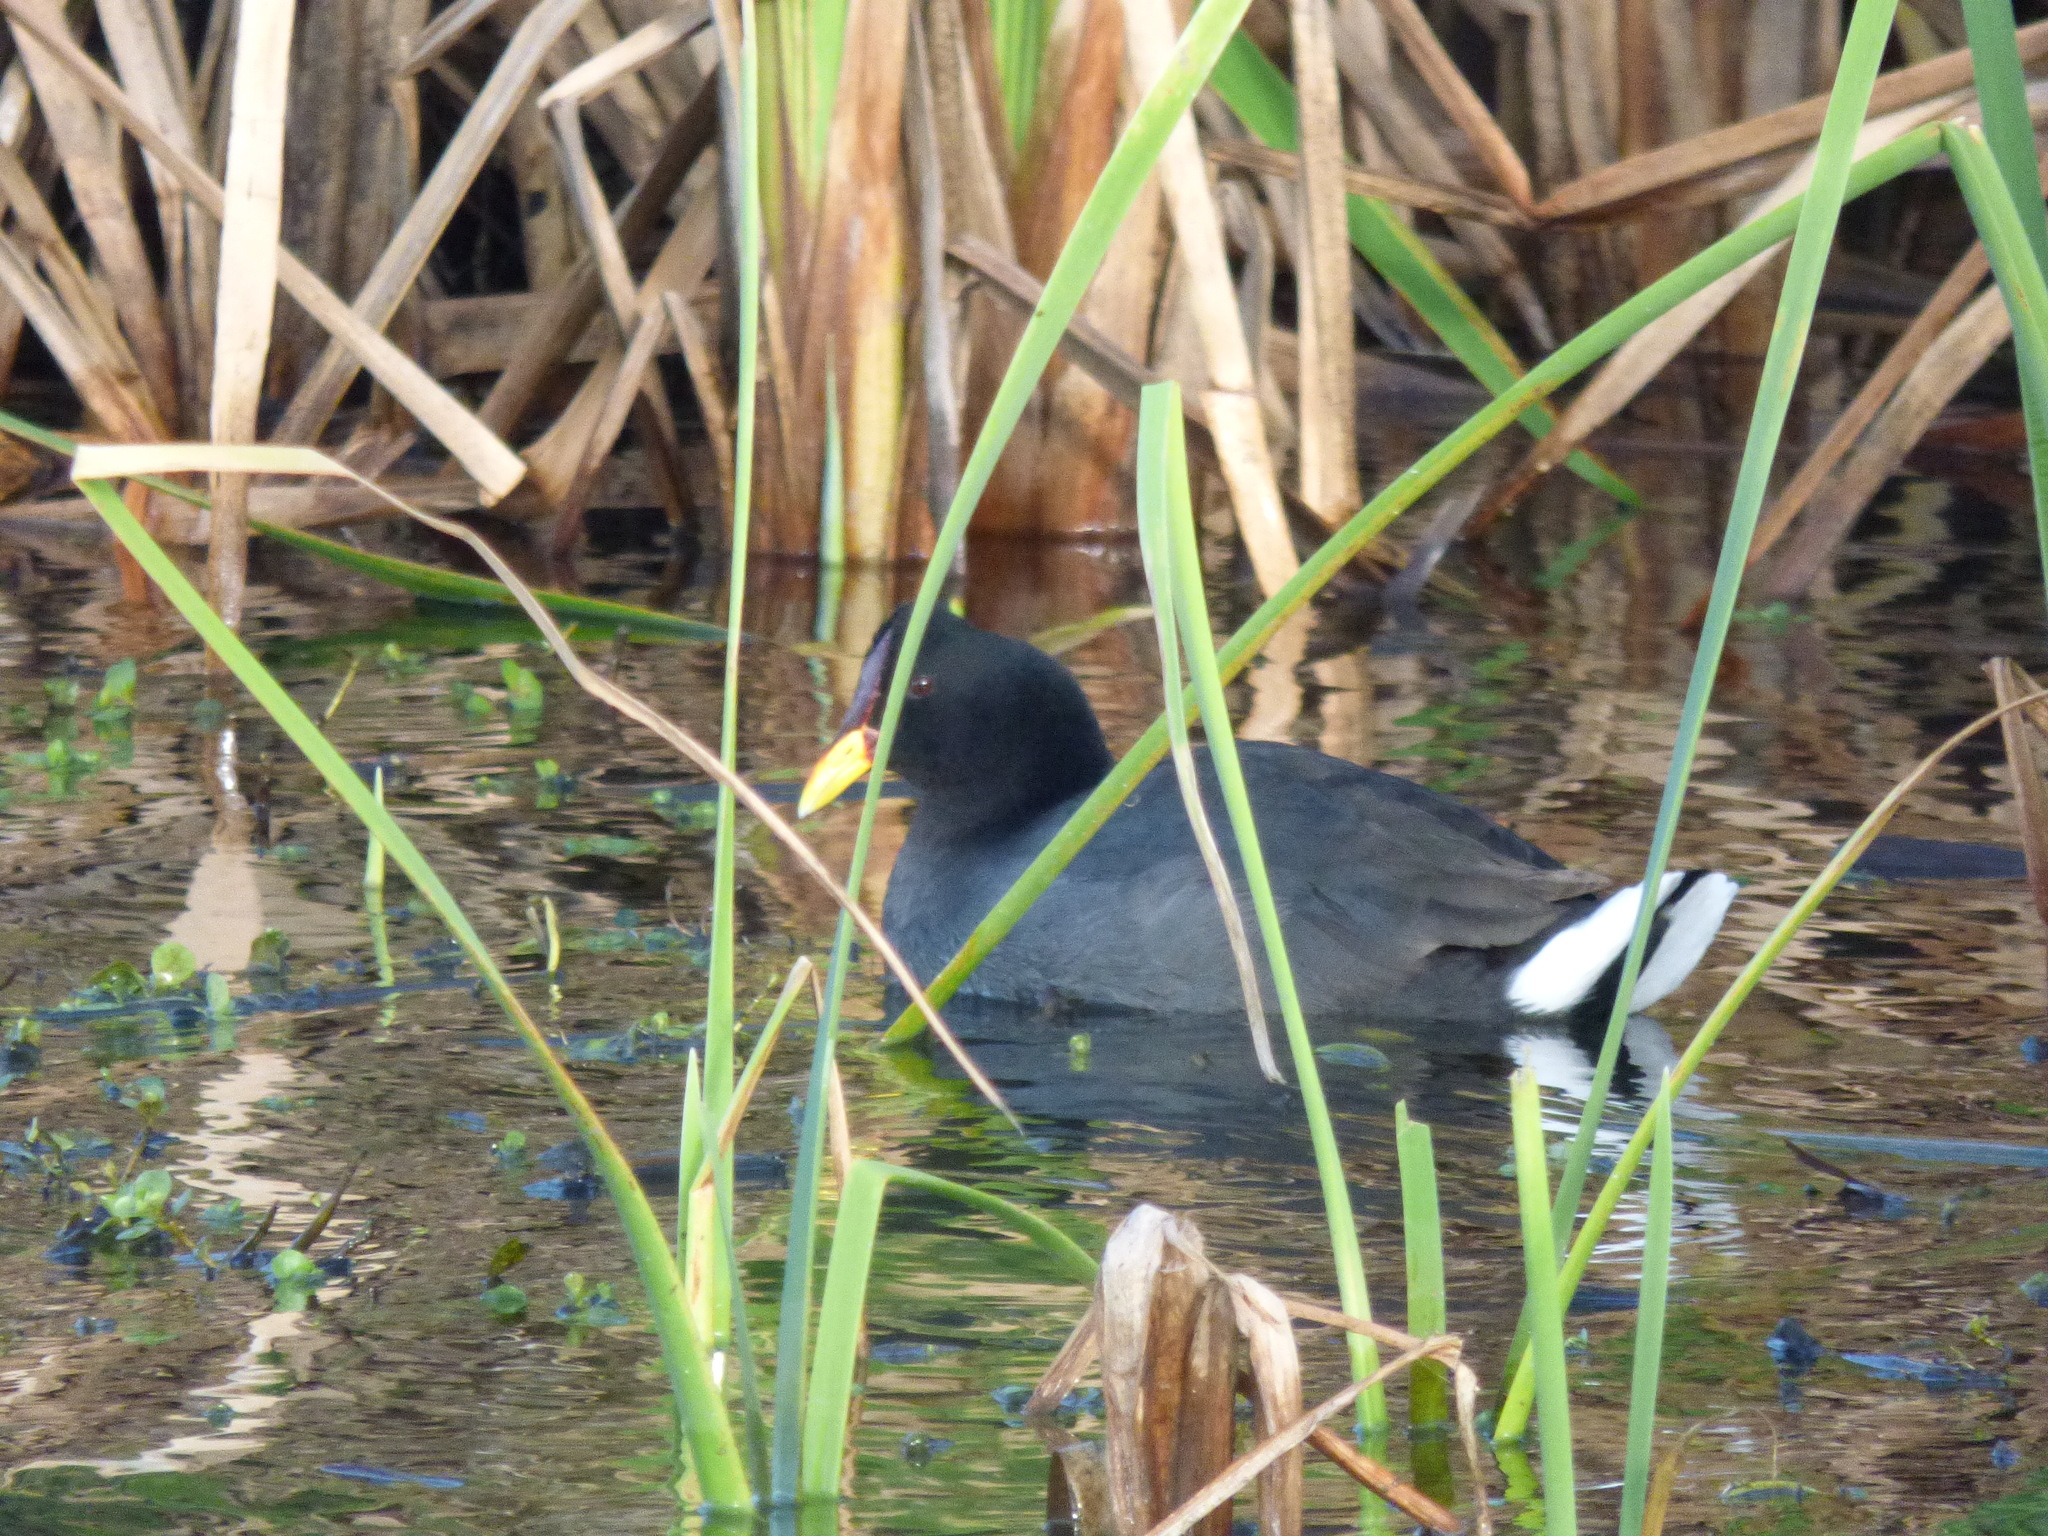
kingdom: Animalia
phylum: Chordata
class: Aves
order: Gruiformes
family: Rallidae
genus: Fulica
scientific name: Fulica rufifrons
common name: Red-fronted coot
